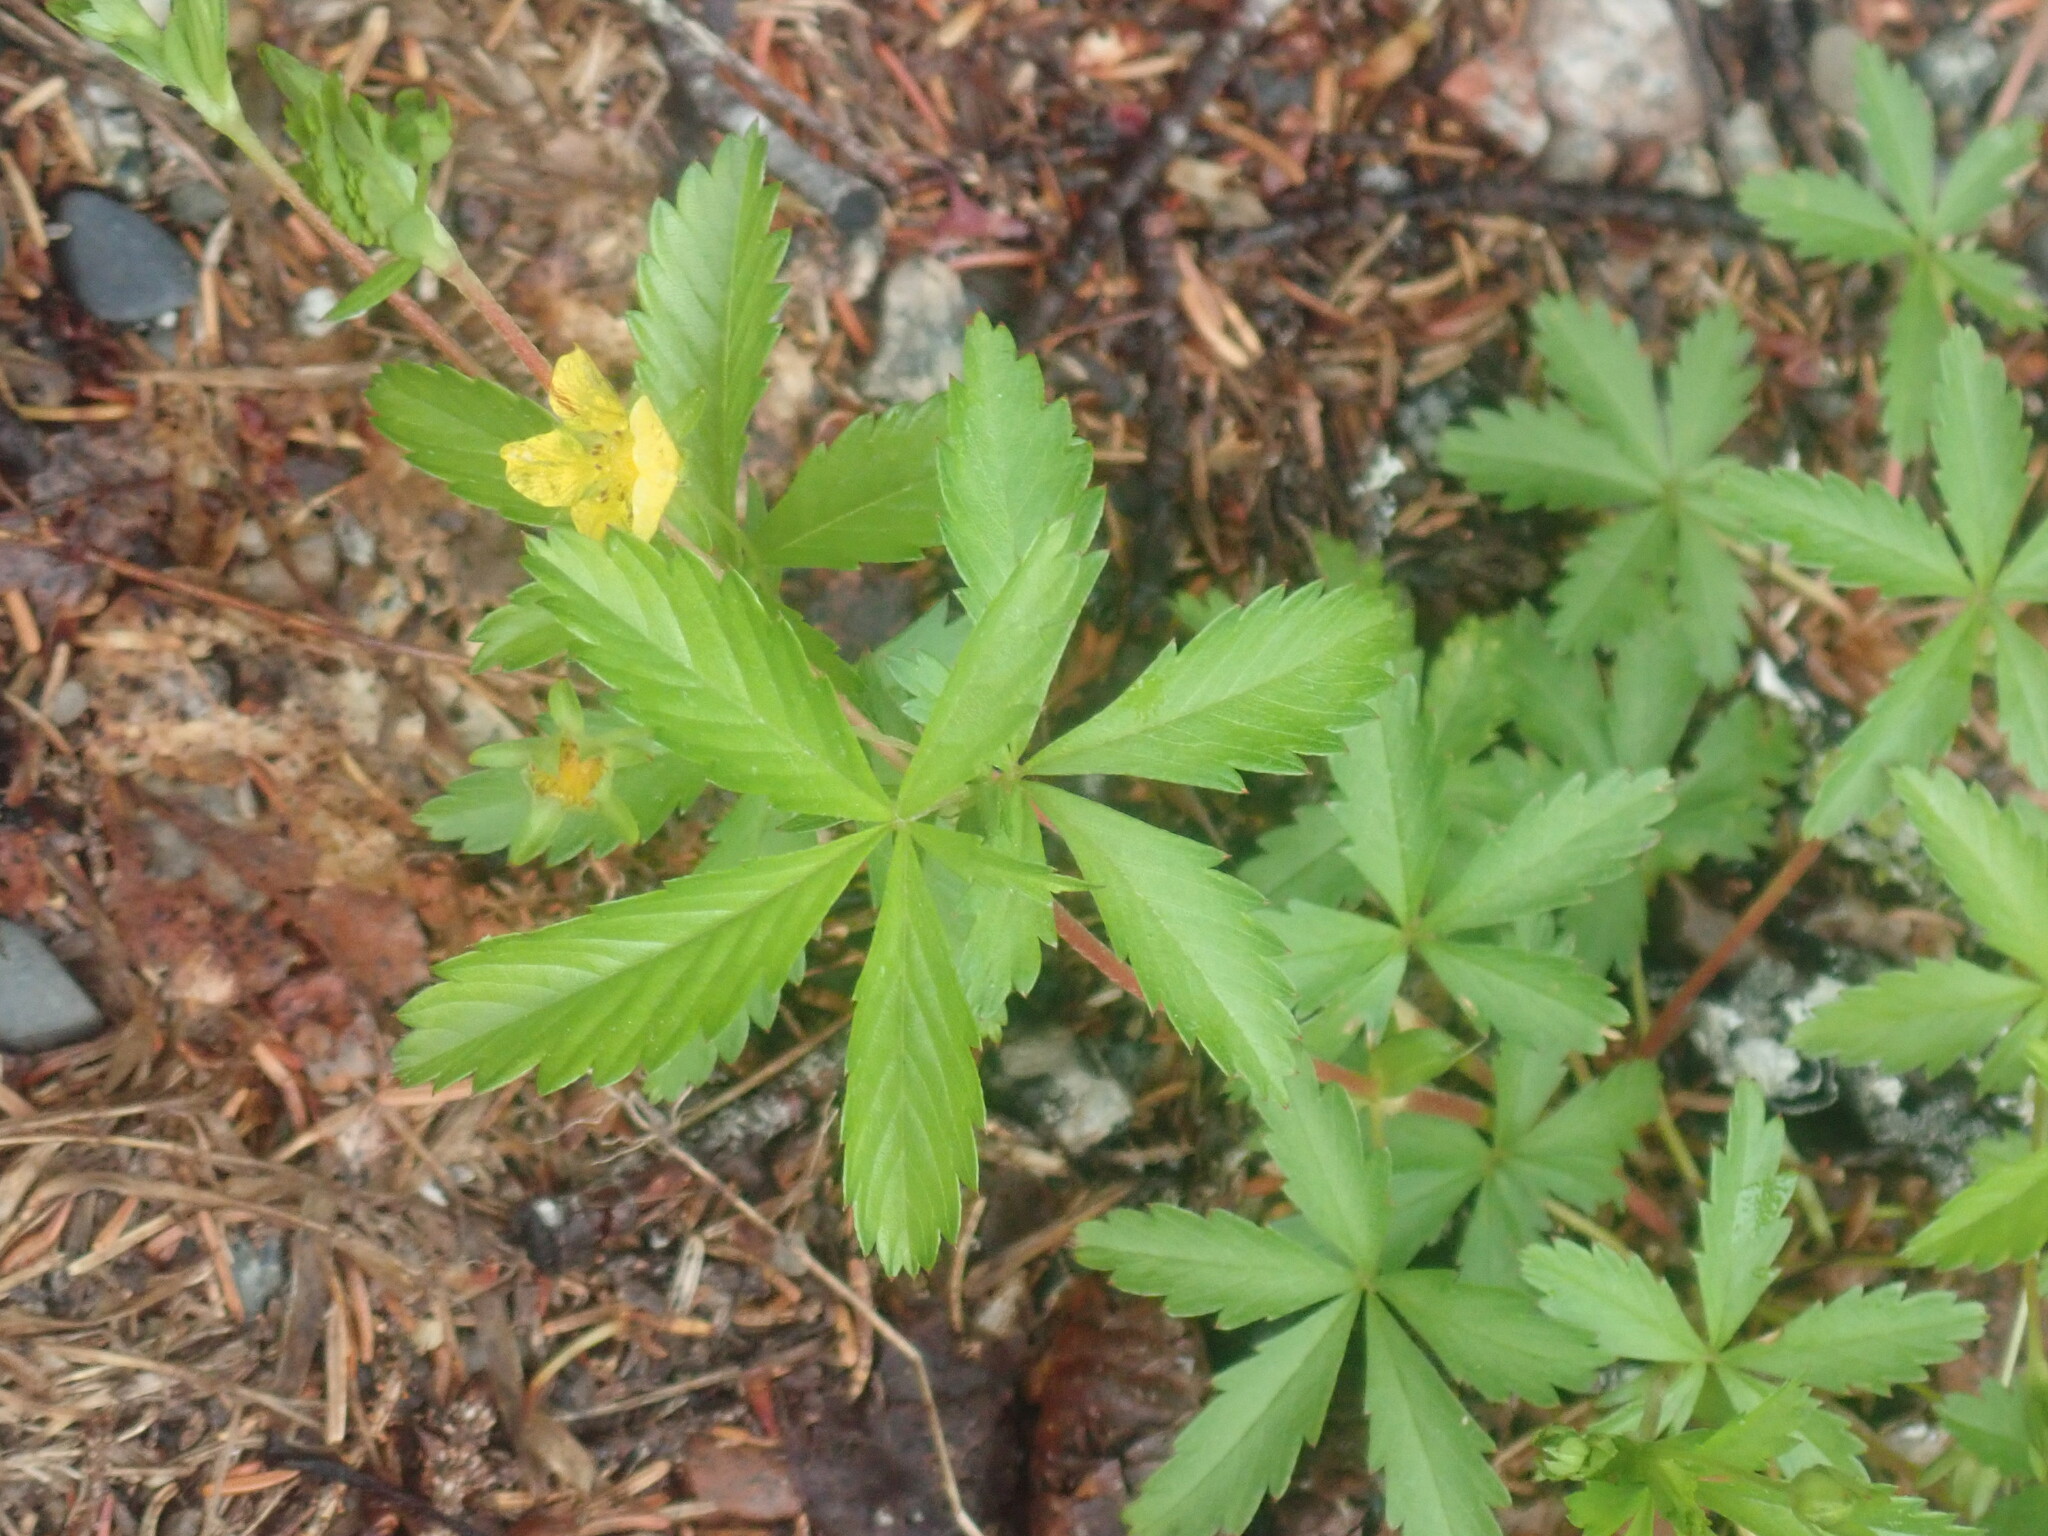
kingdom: Plantae
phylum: Tracheophyta
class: Magnoliopsida
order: Rosales
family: Rosaceae
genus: Potentilla
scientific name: Potentilla simplex
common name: Old field cinquefoil
